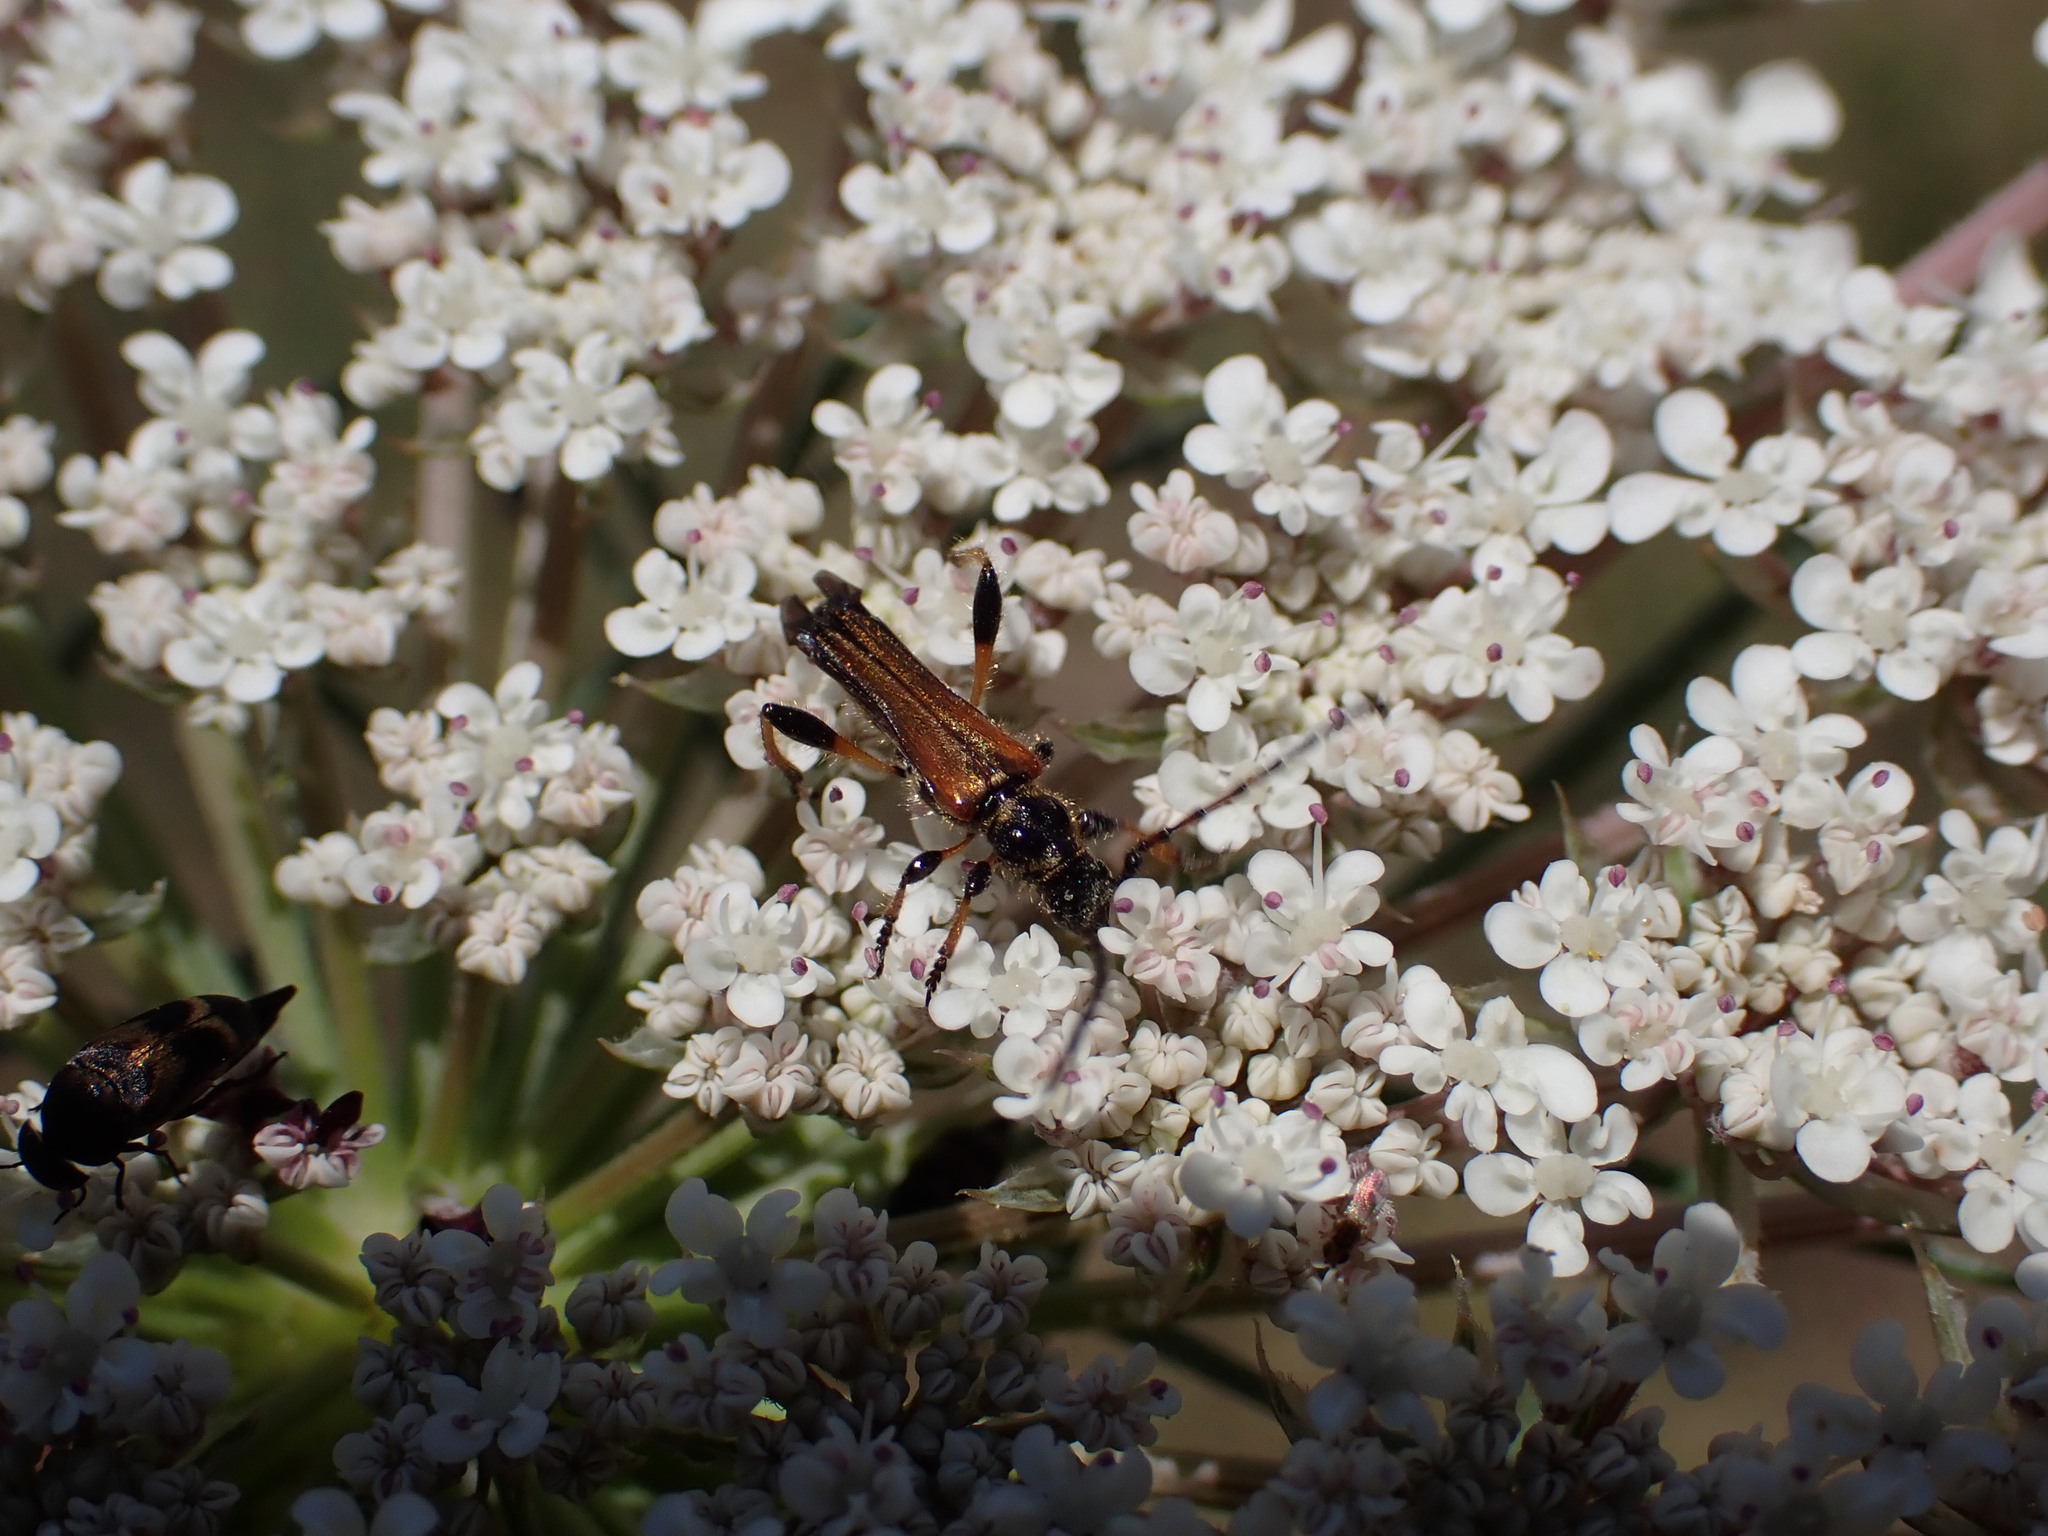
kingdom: Animalia
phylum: Arthropoda
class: Insecta
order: Coleoptera
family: Cerambycidae
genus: Stenopterus
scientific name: Stenopterus ater
